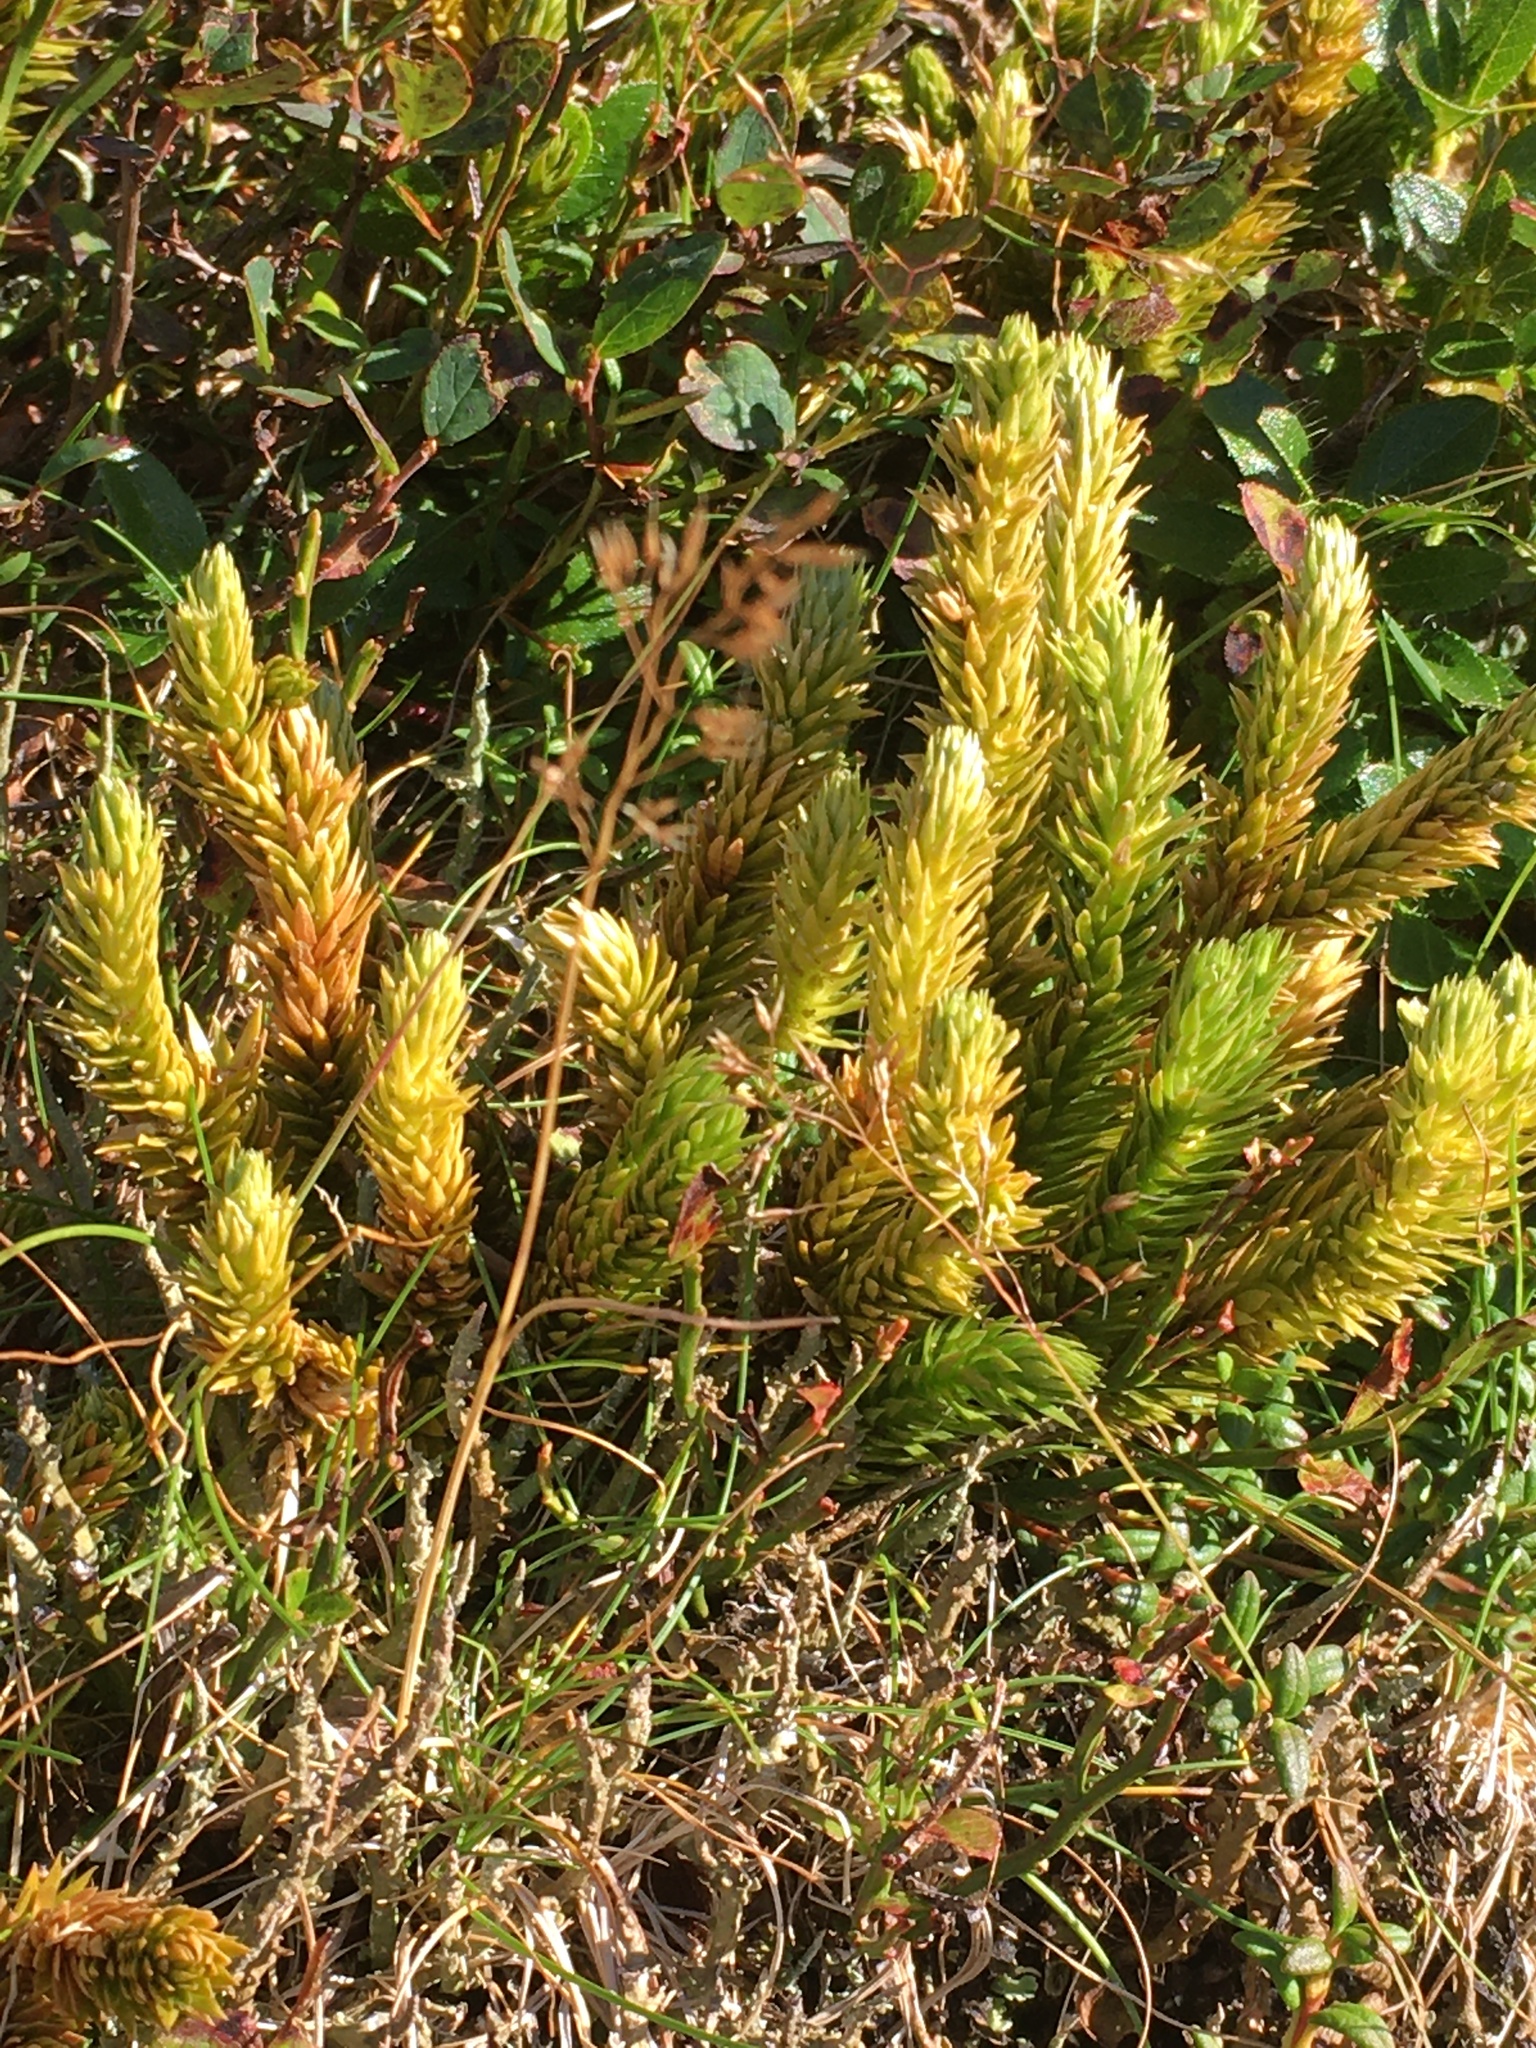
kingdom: Plantae
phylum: Tracheophyta
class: Lycopodiopsida
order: Lycopodiales
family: Lycopodiaceae
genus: Huperzia
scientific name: Huperzia selago
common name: Northern firmoss
